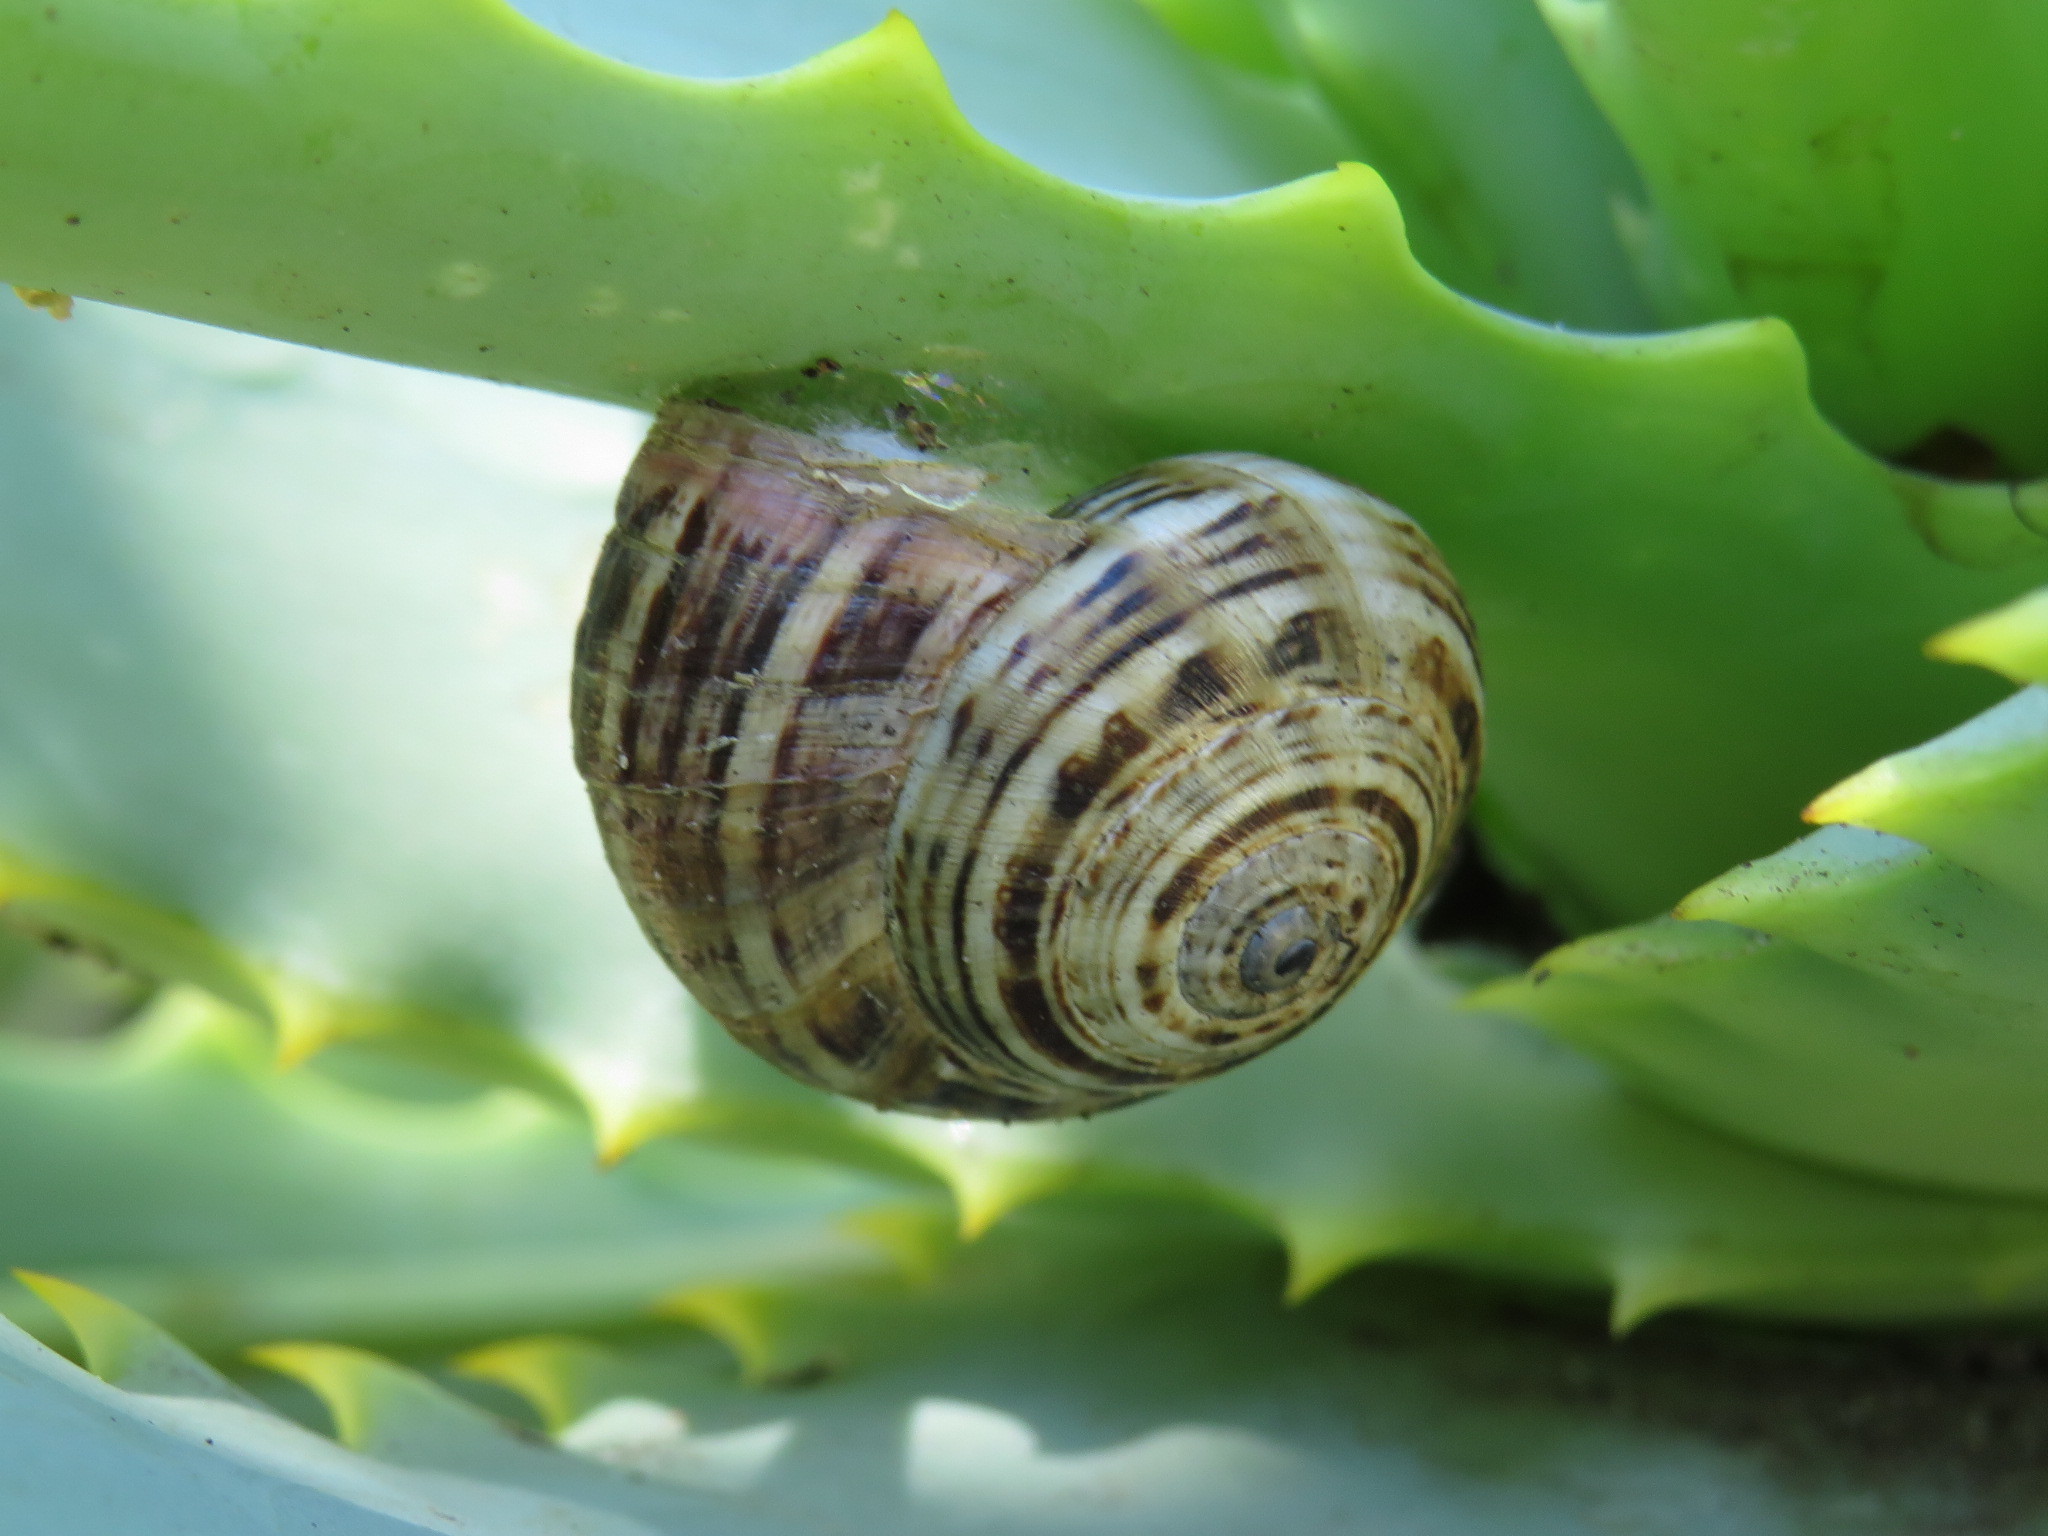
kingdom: Animalia
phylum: Mollusca
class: Gastropoda
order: Stylommatophora
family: Helicidae
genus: Theba
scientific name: Theba pisana
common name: White snail
